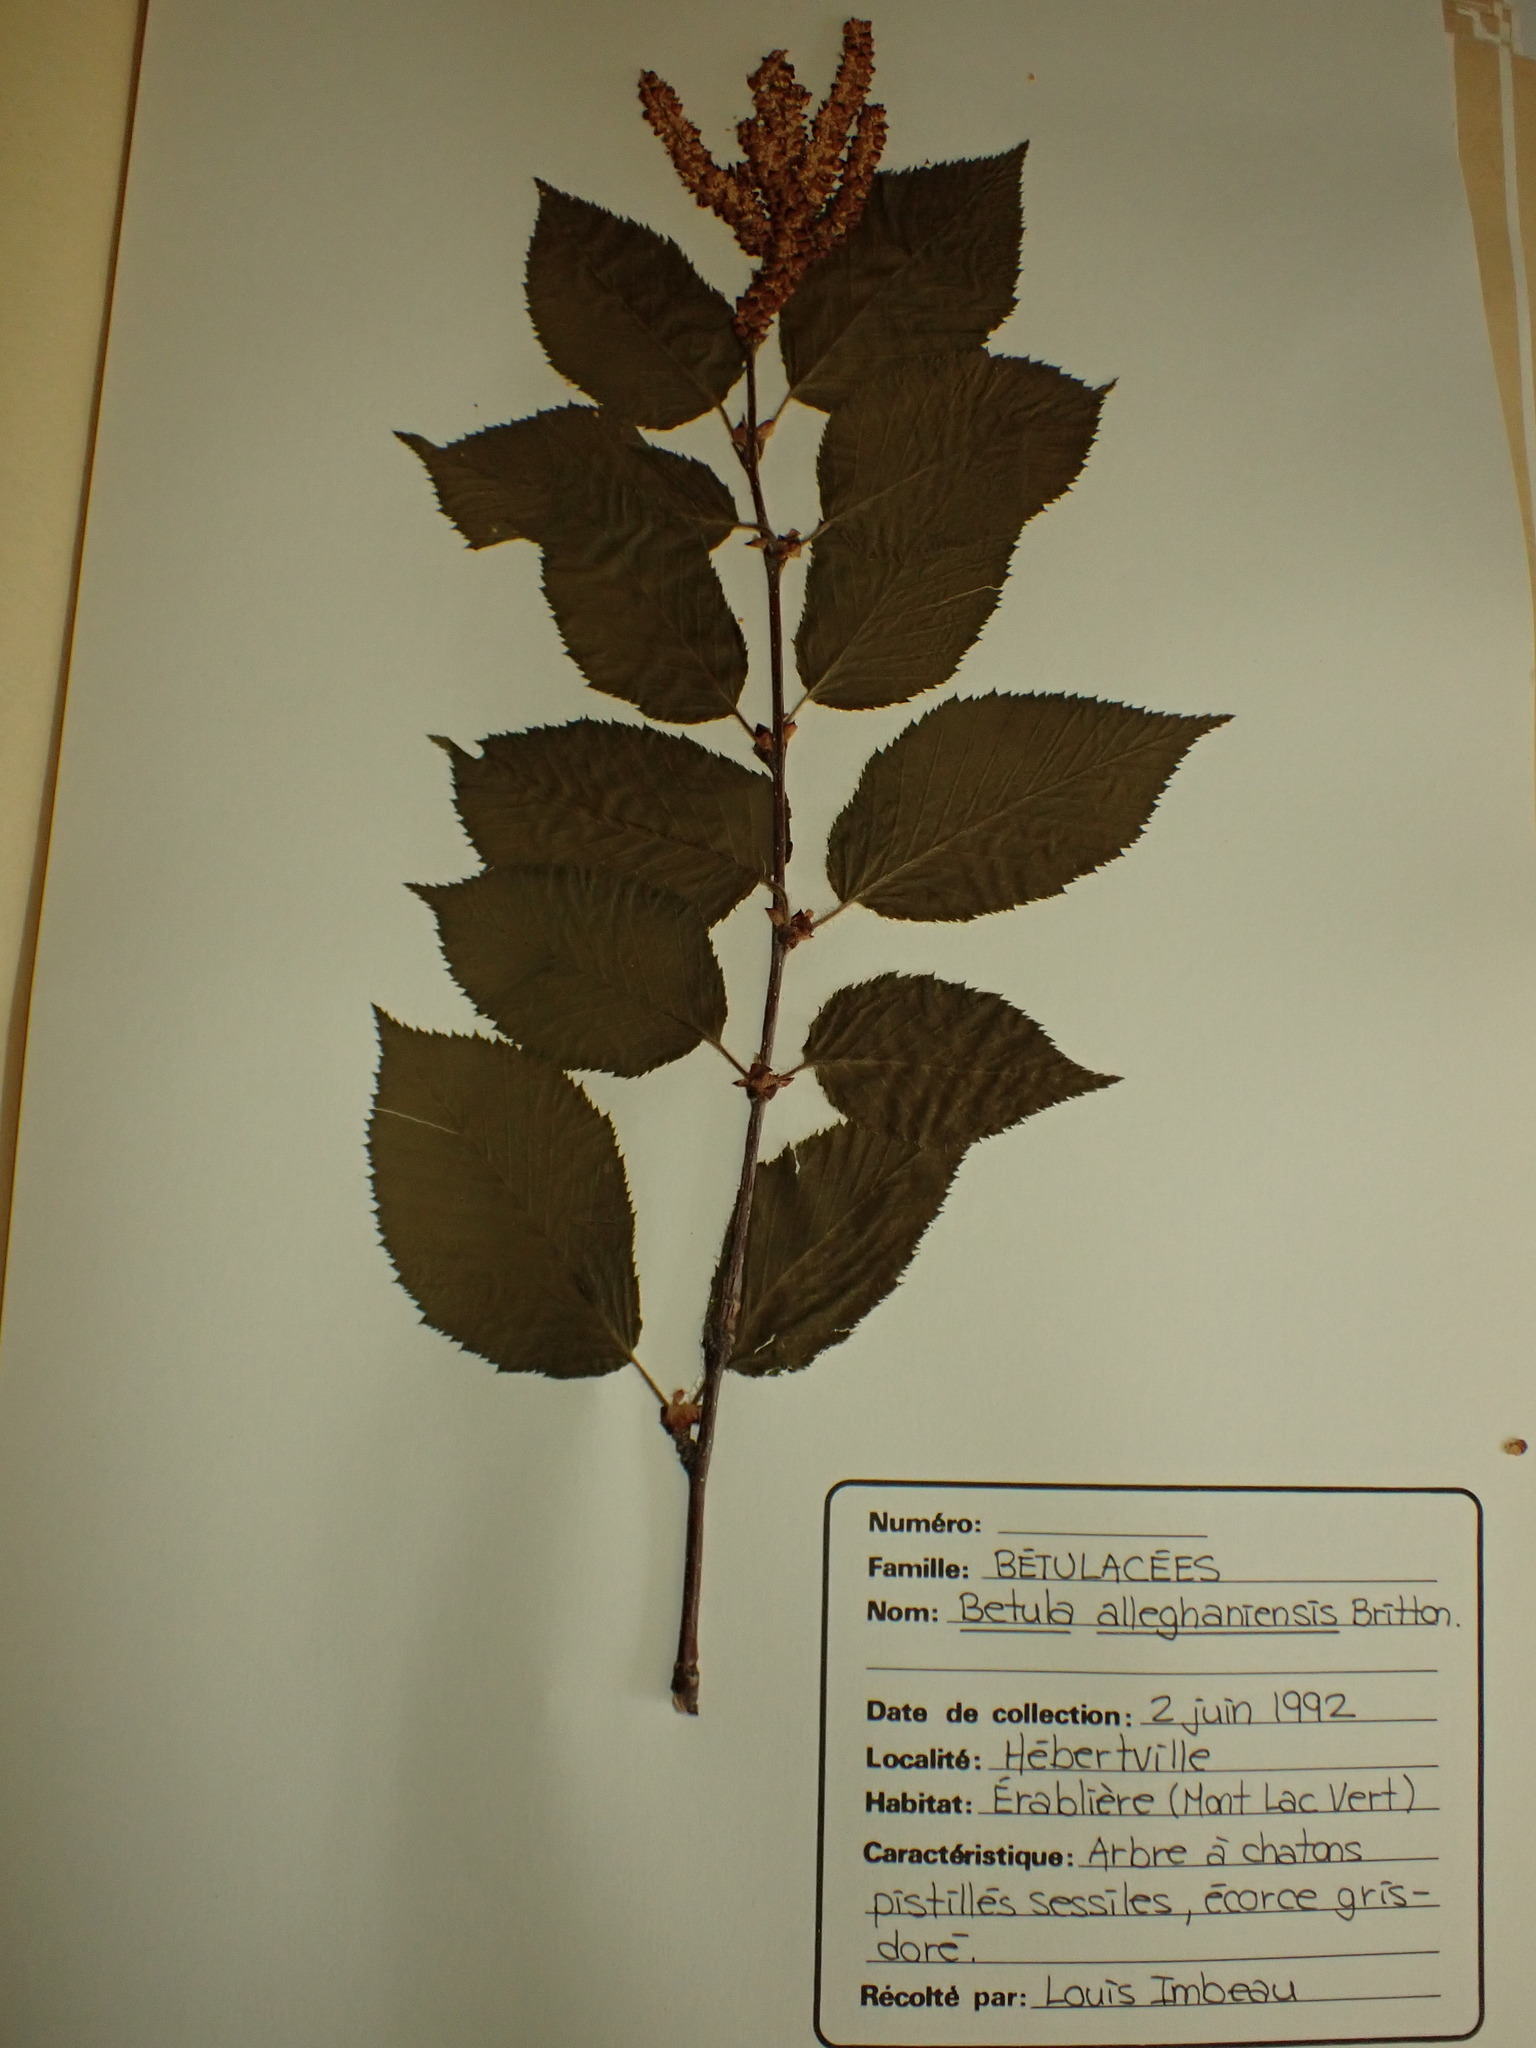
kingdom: Plantae
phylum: Tracheophyta
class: Magnoliopsida
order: Fagales
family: Betulaceae
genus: Betula
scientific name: Betula alleghaniensis
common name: Yellow birch
